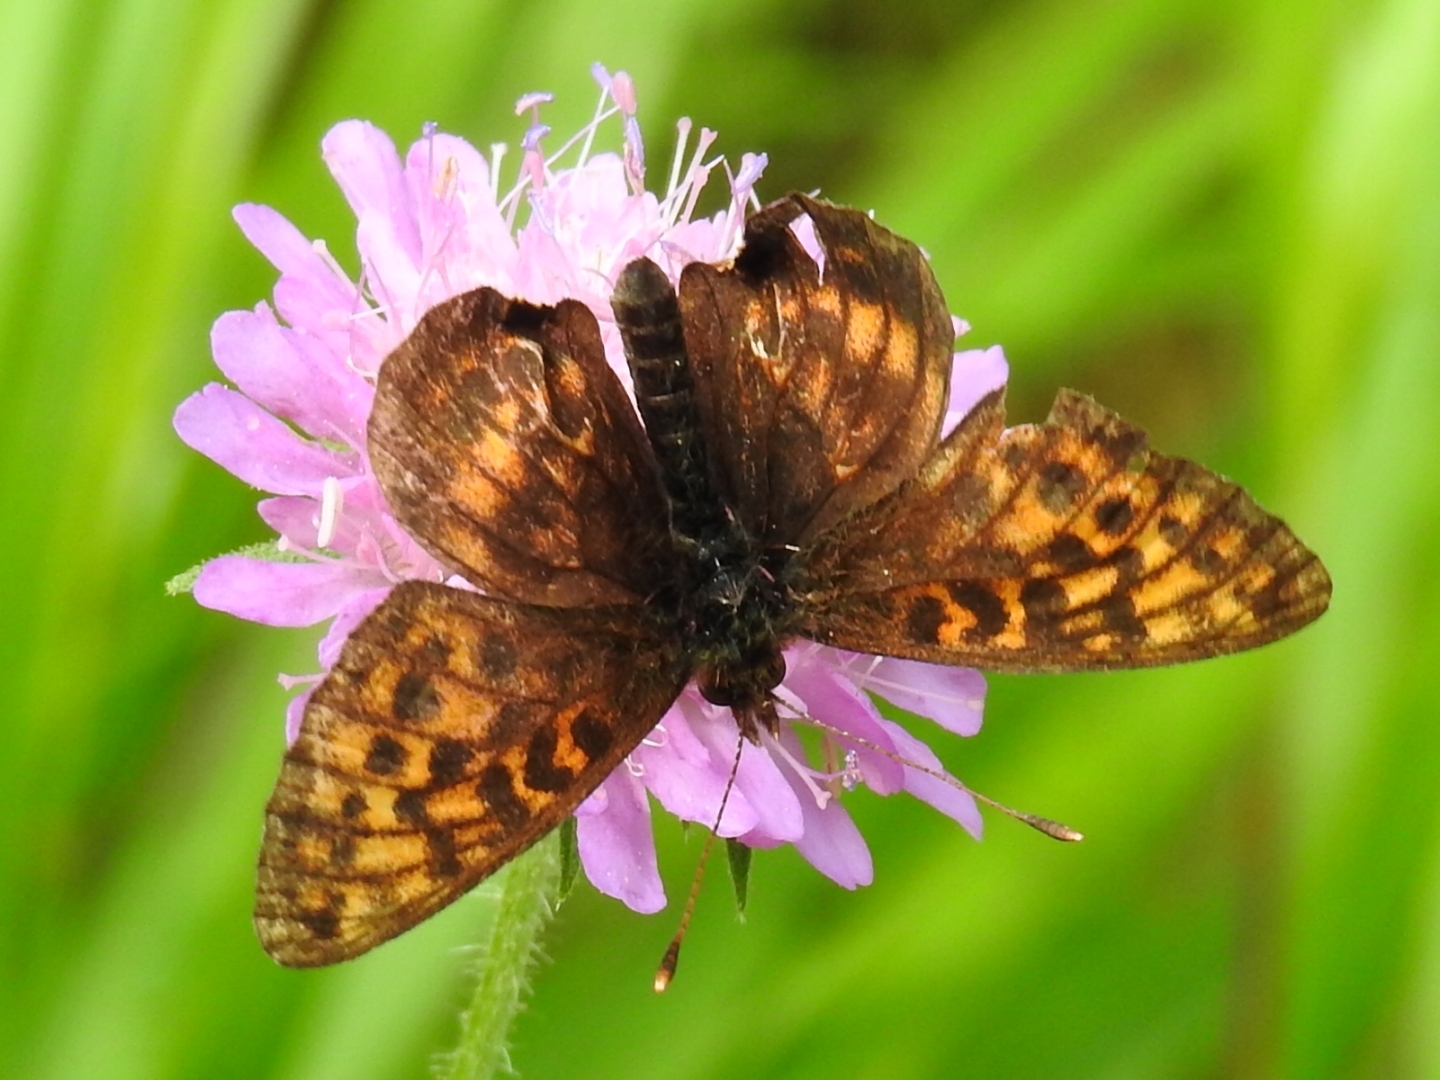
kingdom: Animalia
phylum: Arthropoda
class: Insecta
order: Lepidoptera
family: Nymphalidae
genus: Boloria
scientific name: Boloria thore
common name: Thor's fritillary
